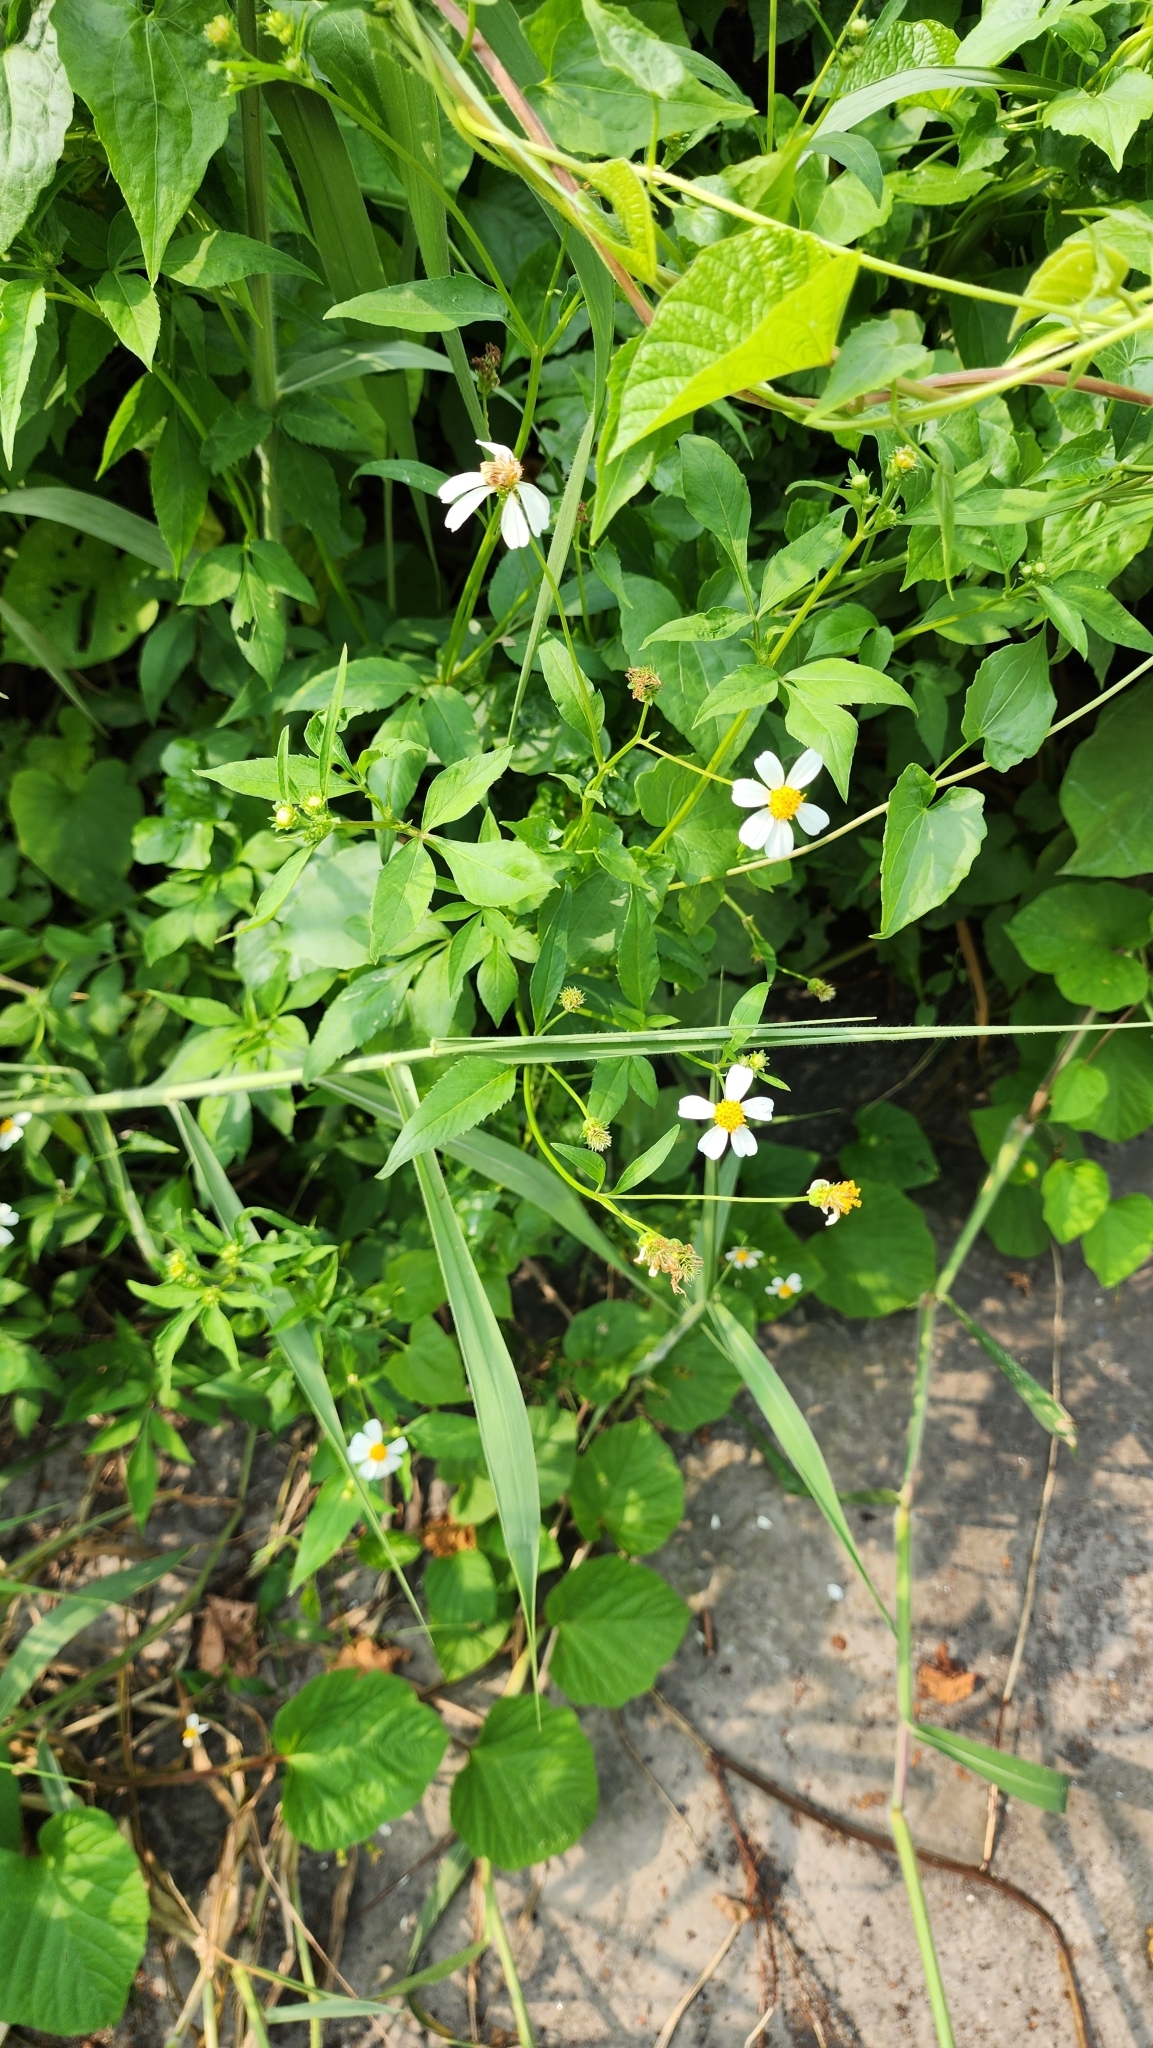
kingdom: Plantae
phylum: Tracheophyta
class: Magnoliopsida
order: Asterales
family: Asteraceae
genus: Bidens
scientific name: Bidens alba
